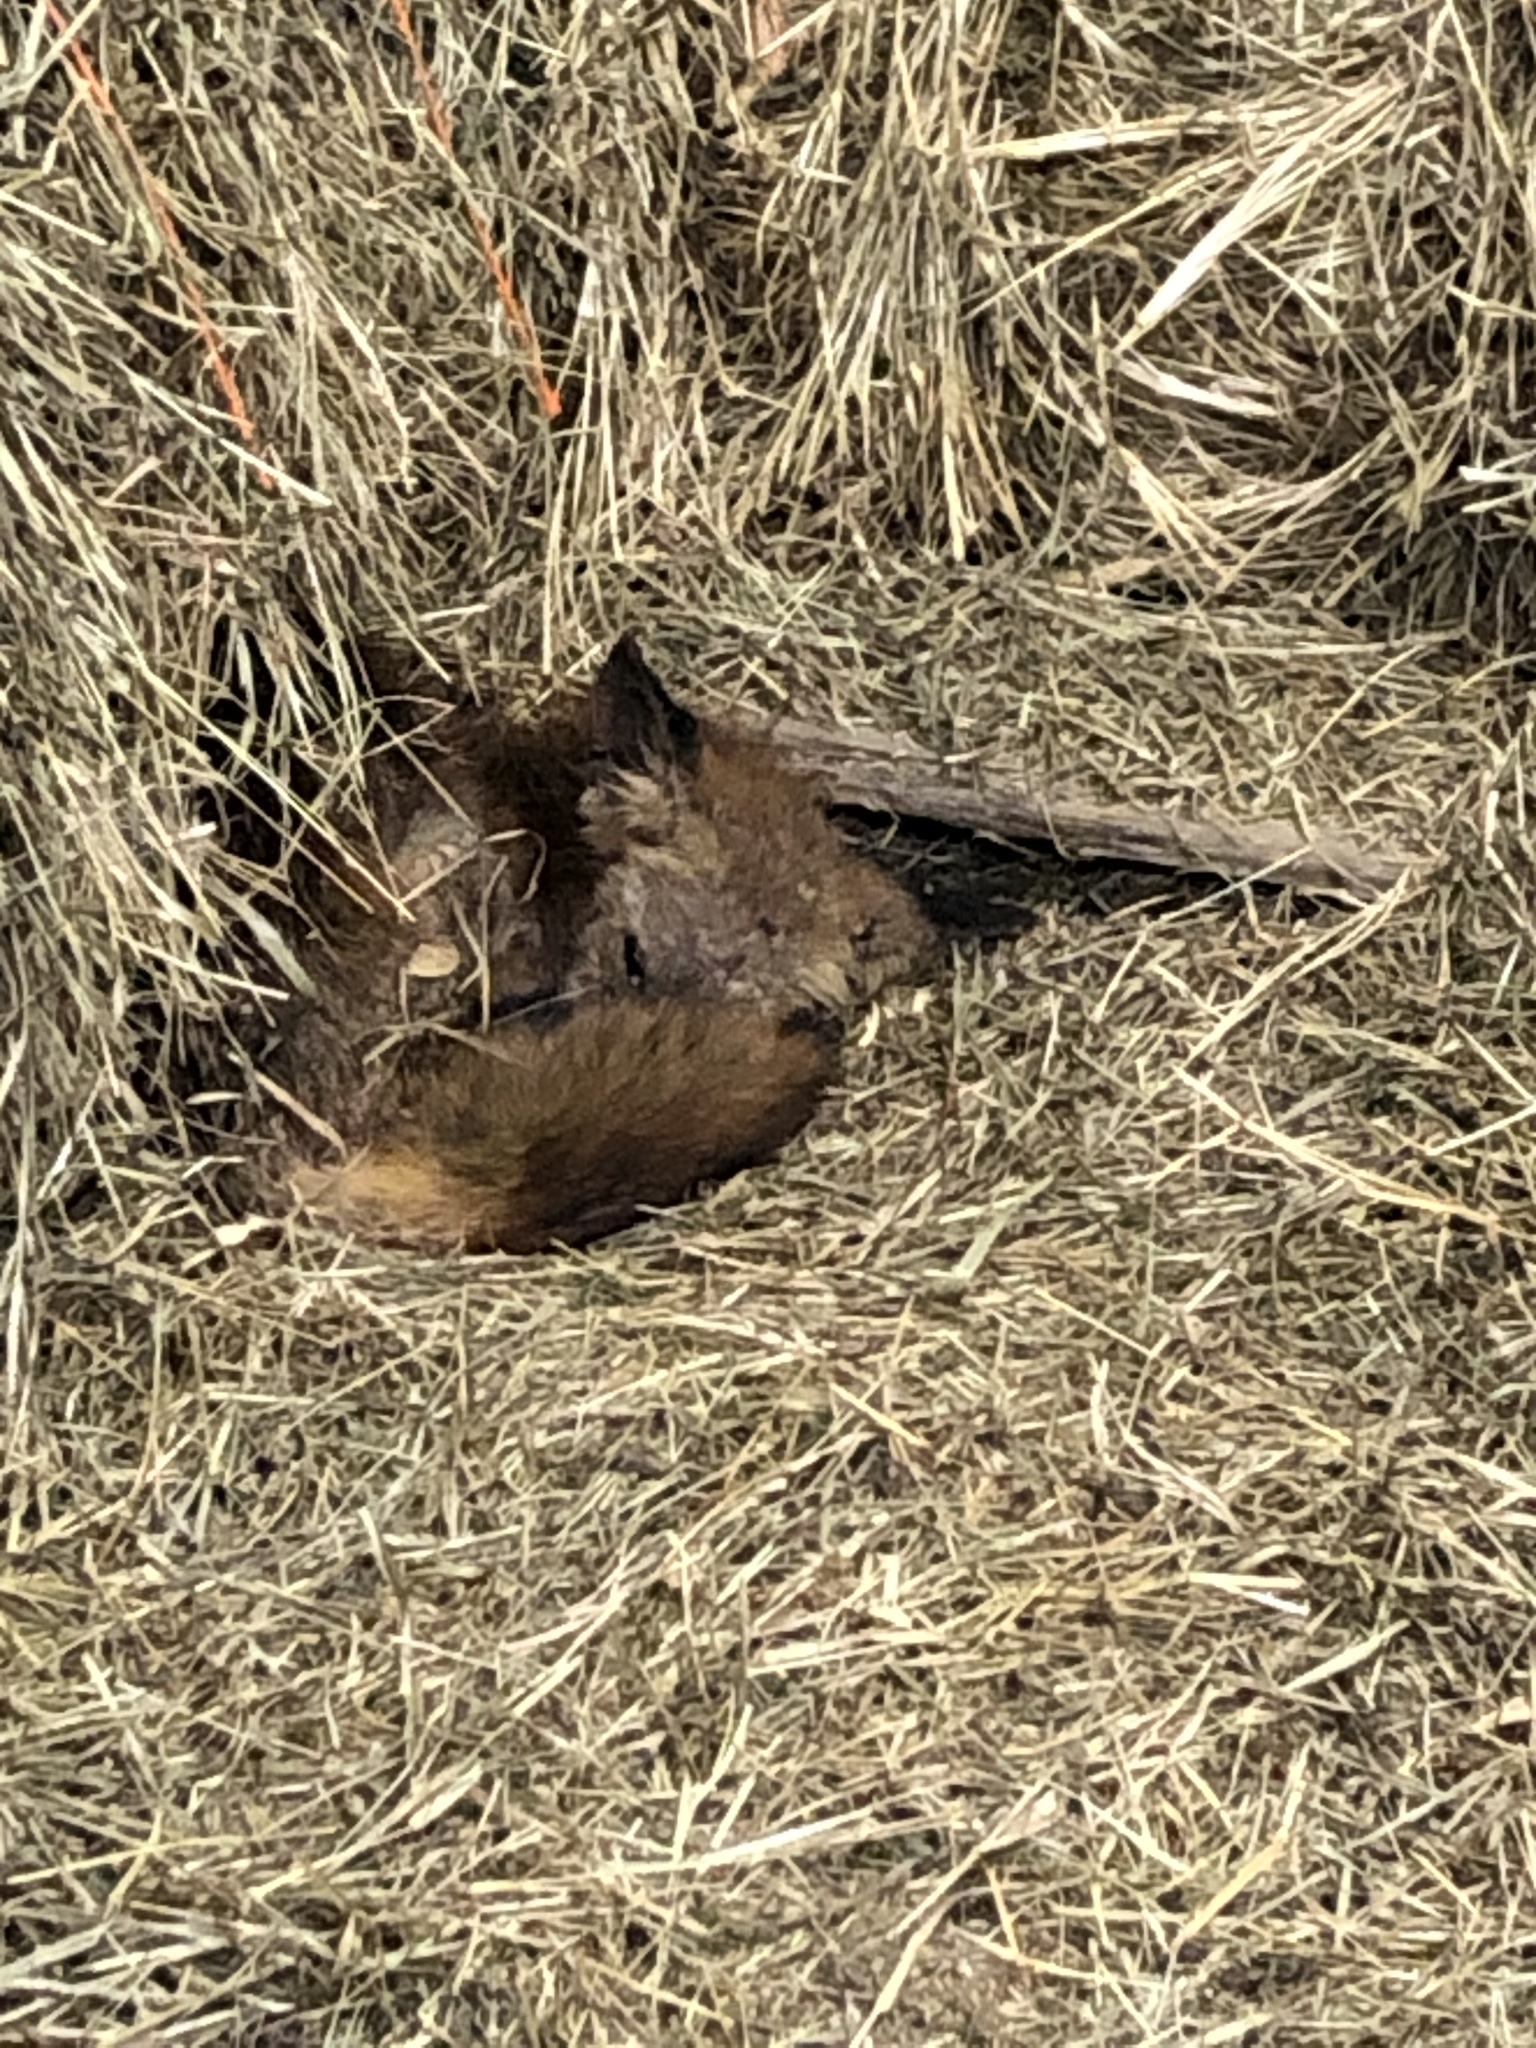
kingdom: Animalia
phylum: Chordata
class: Mammalia
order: Carnivora
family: Canidae
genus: Vulpes
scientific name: Vulpes vulpes
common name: Red fox
